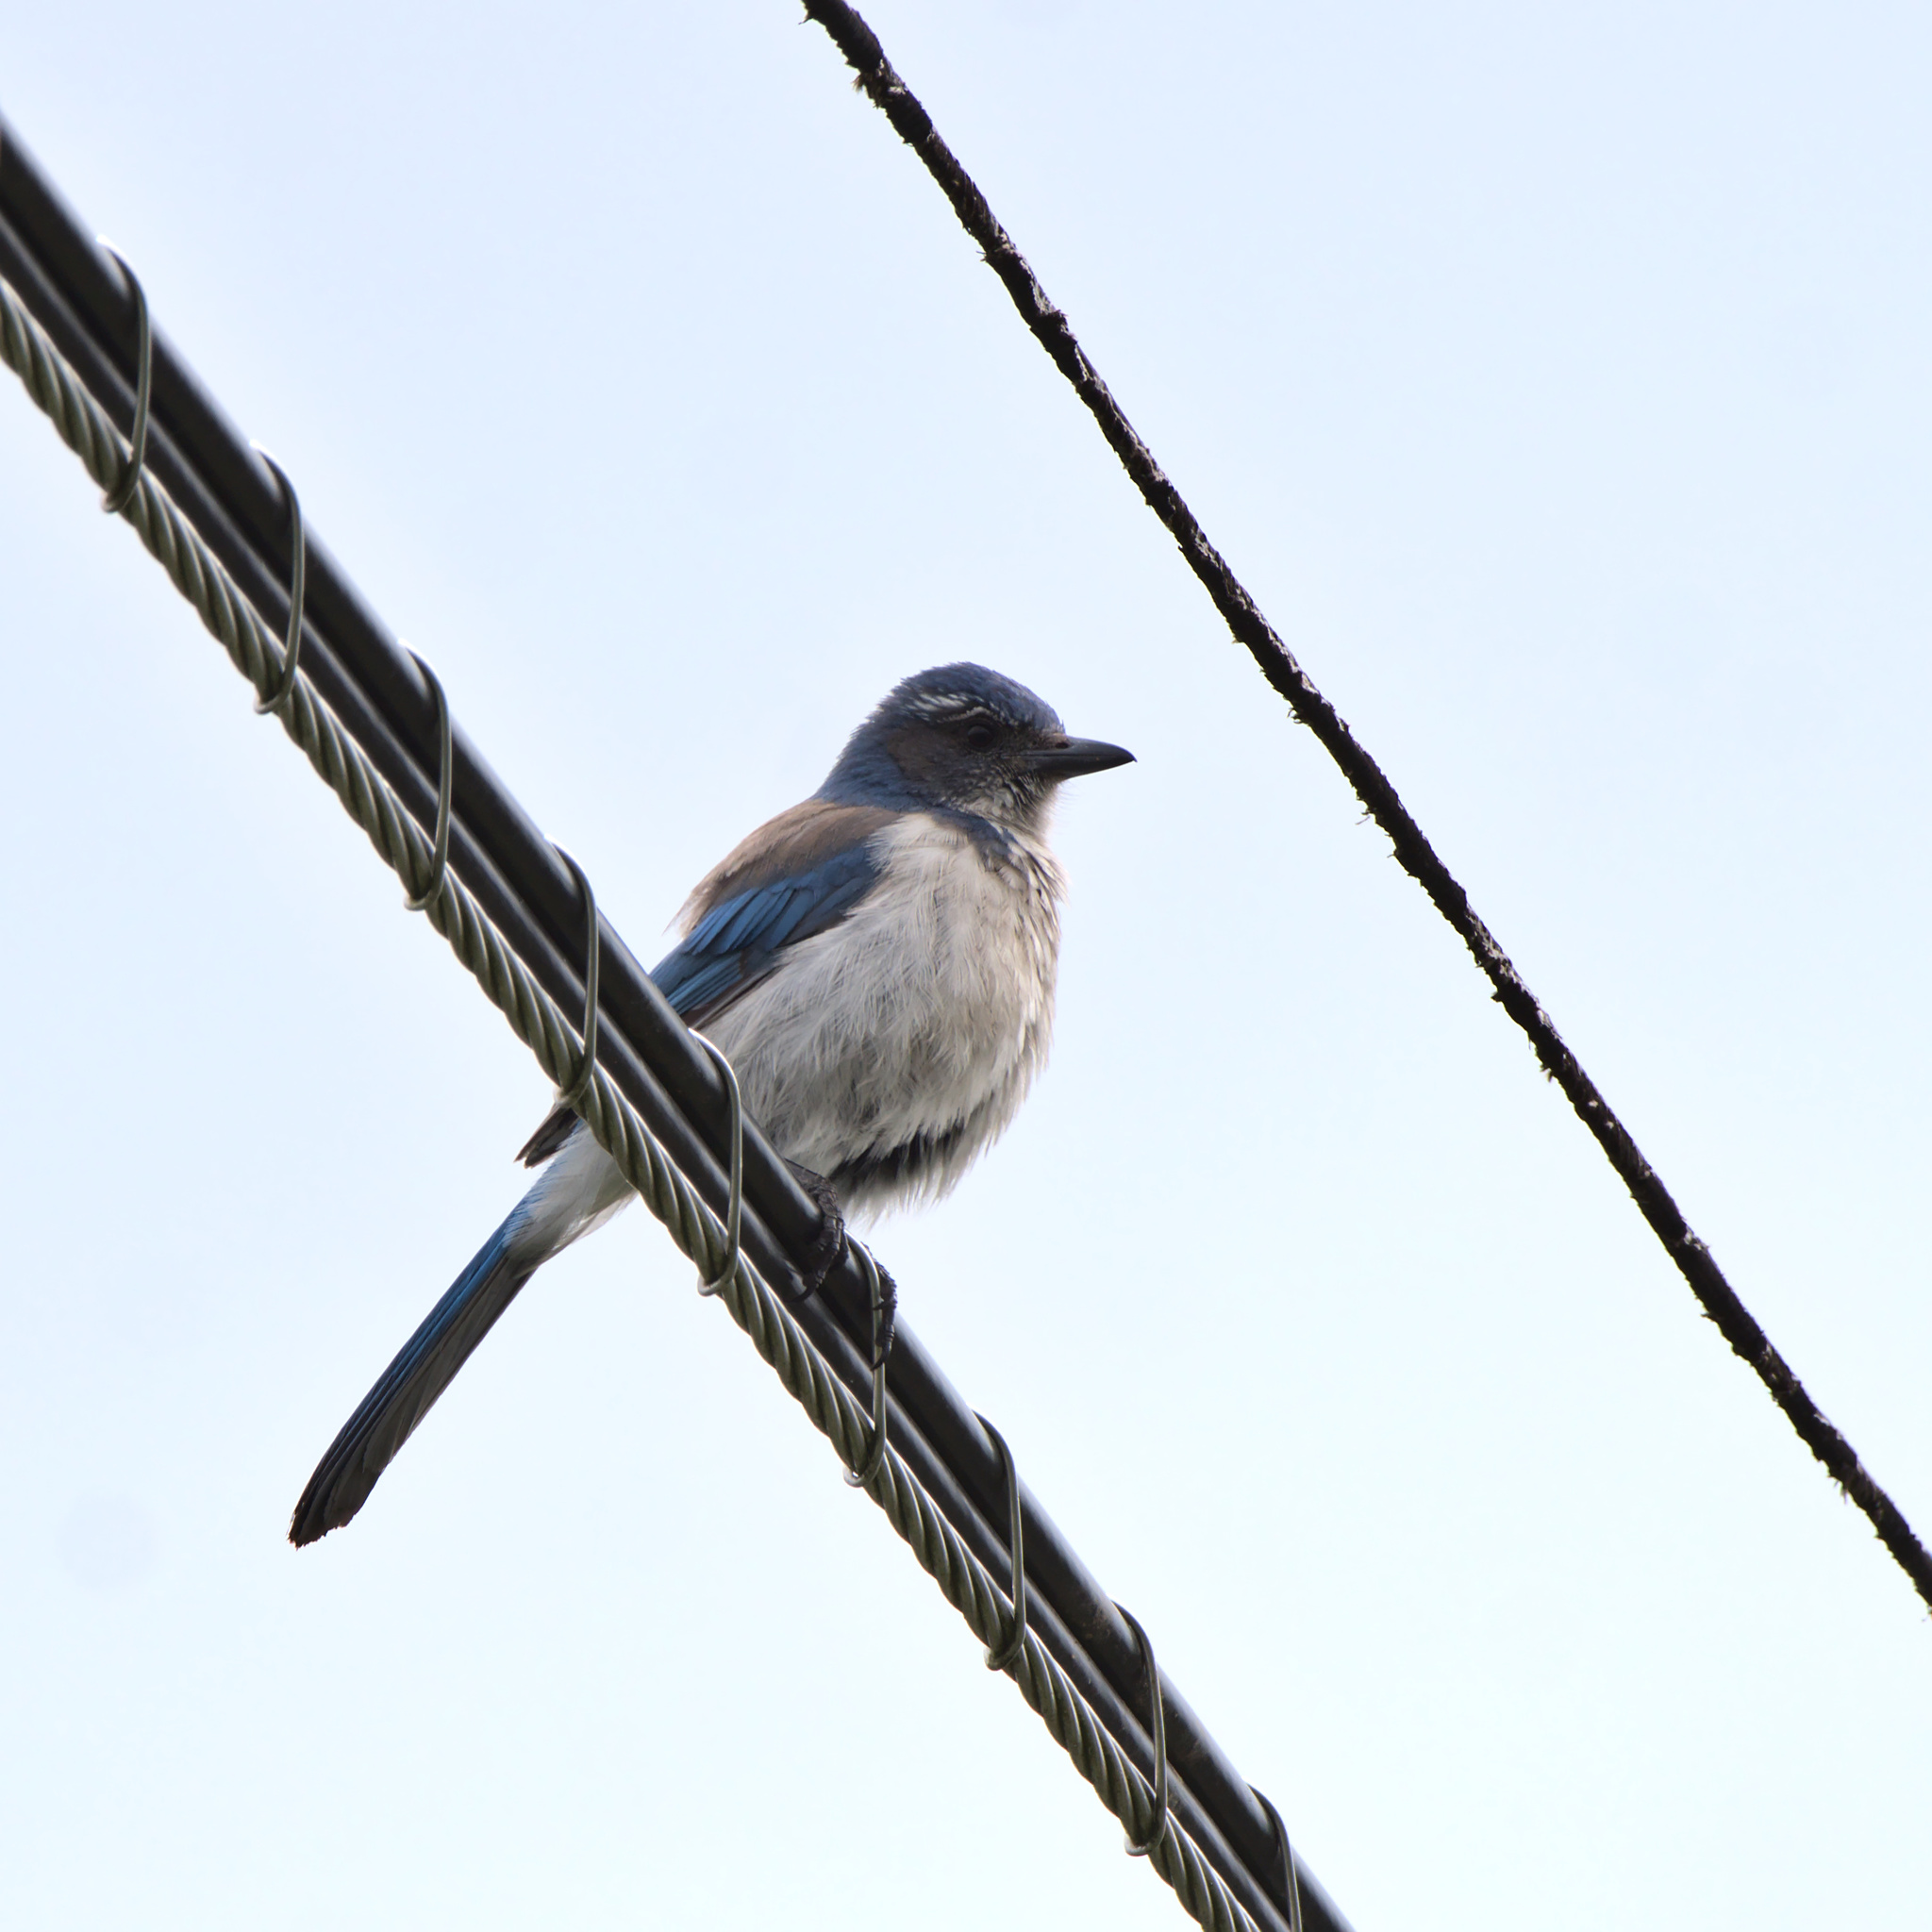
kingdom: Animalia
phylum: Chordata
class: Aves
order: Passeriformes
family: Corvidae
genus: Aphelocoma
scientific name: Aphelocoma californica
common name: California scrub-jay
